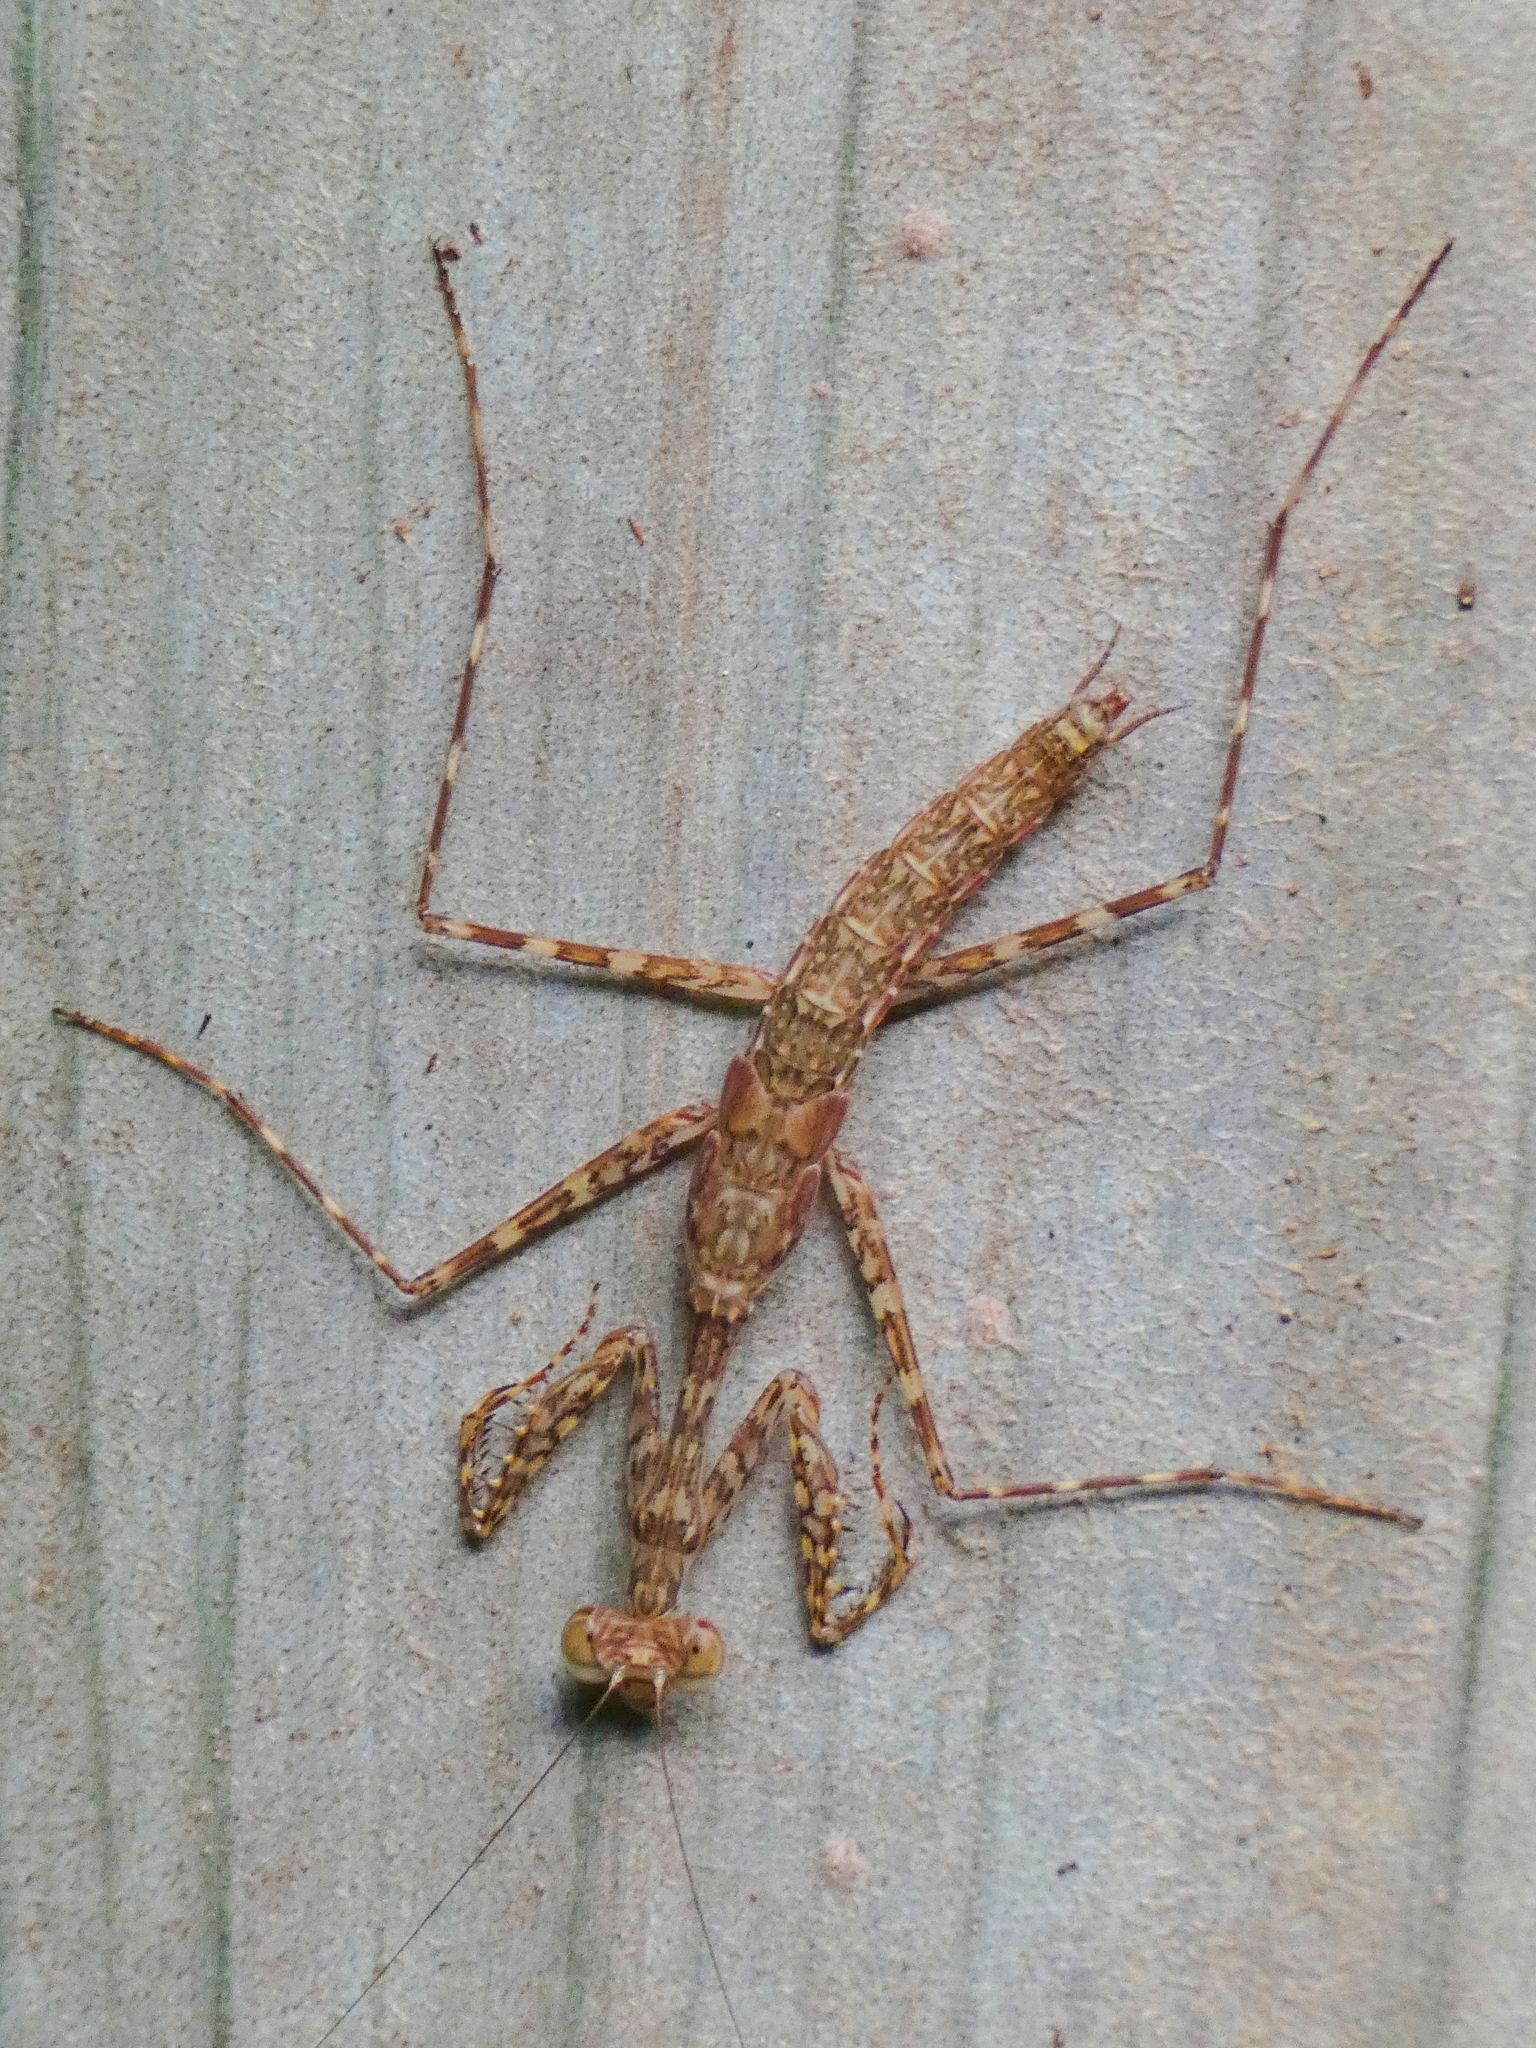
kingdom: Animalia
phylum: Arthropoda
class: Insecta
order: Mantodea
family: Nanomantidae
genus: Ciulfina
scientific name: Ciulfina rentzi
